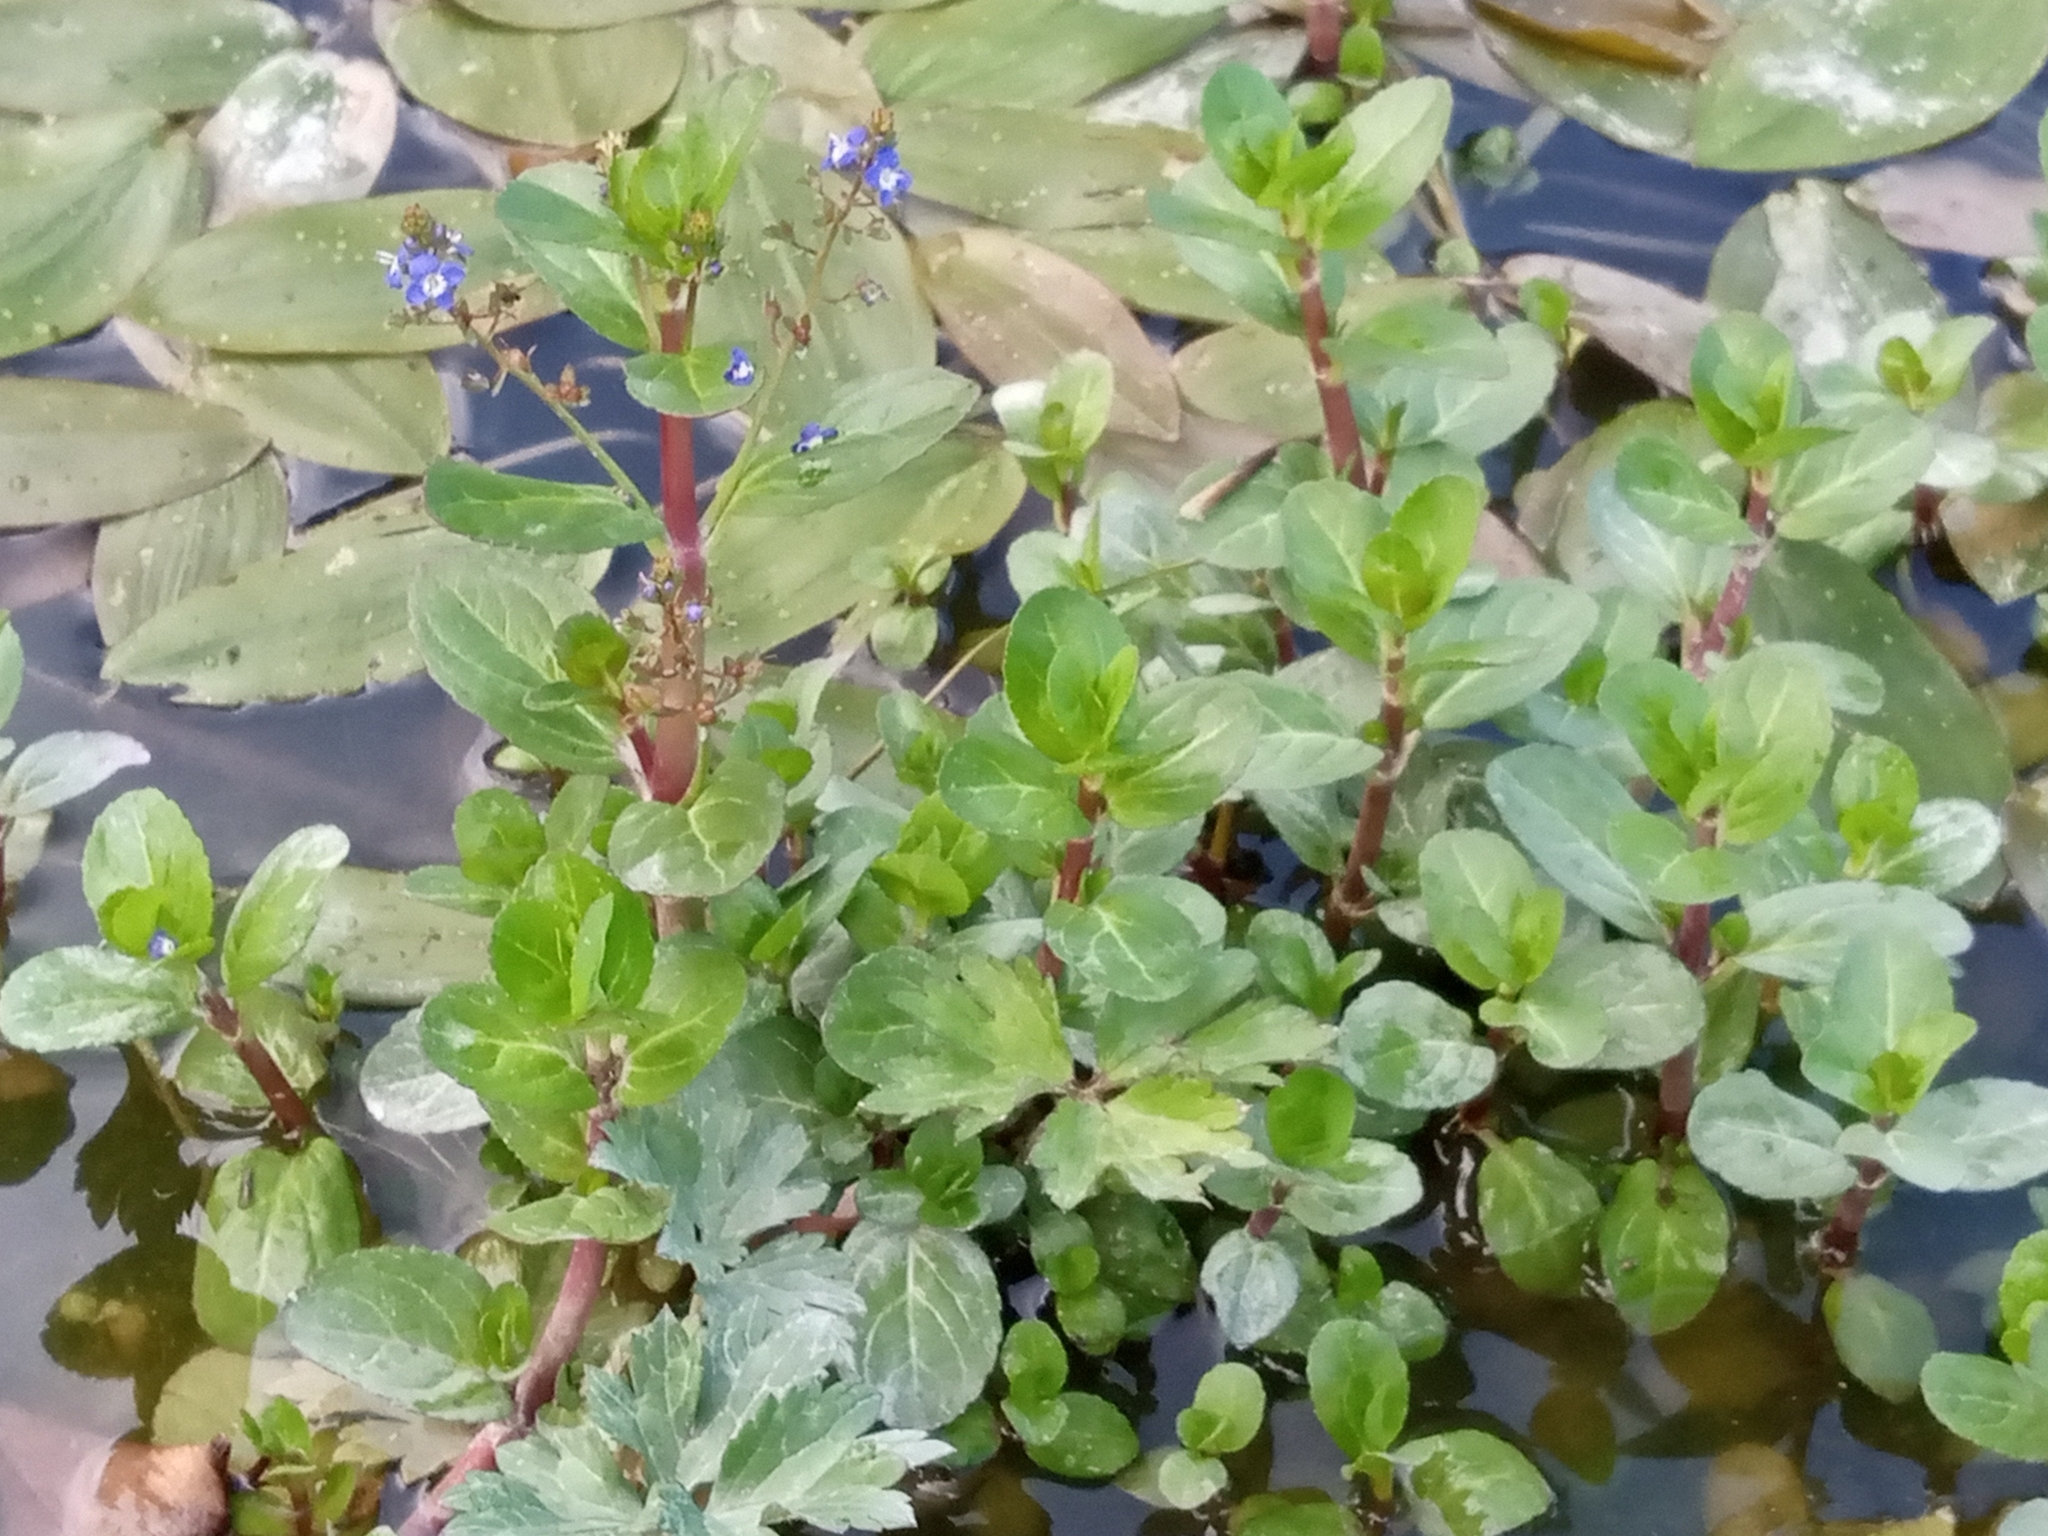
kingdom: Plantae
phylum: Tracheophyta
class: Magnoliopsida
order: Lamiales
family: Plantaginaceae
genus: Veronica
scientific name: Veronica beccabunga
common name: Brooklime
